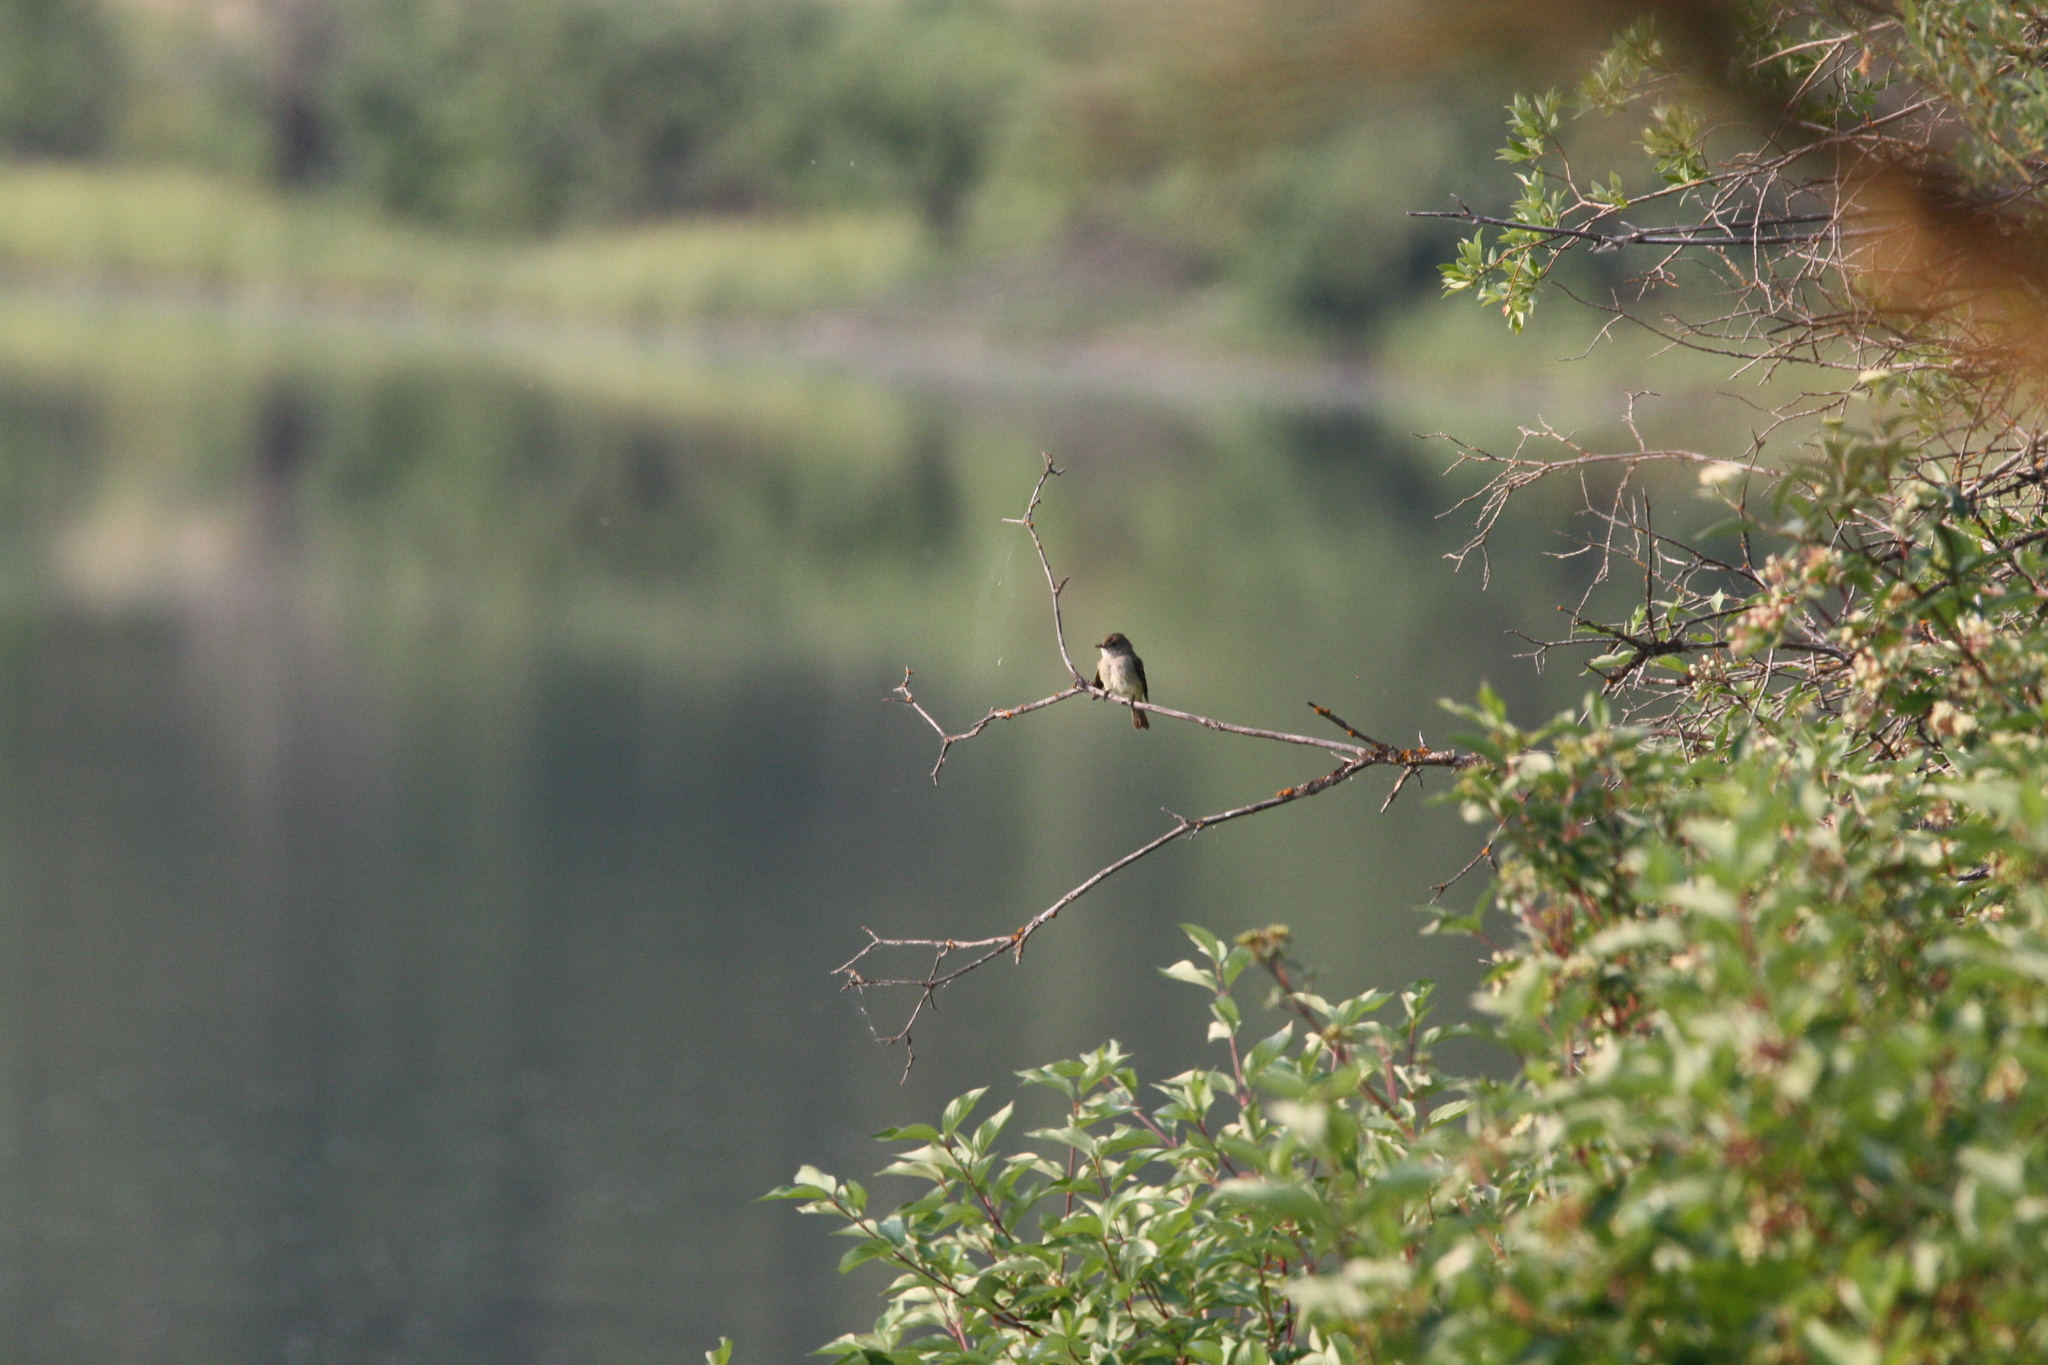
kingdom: Animalia
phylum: Chordata
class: Aves
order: Passeriformes
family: Tyrannidae
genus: Empidonax
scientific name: Empidonax traillii
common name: Willow flycatcher
